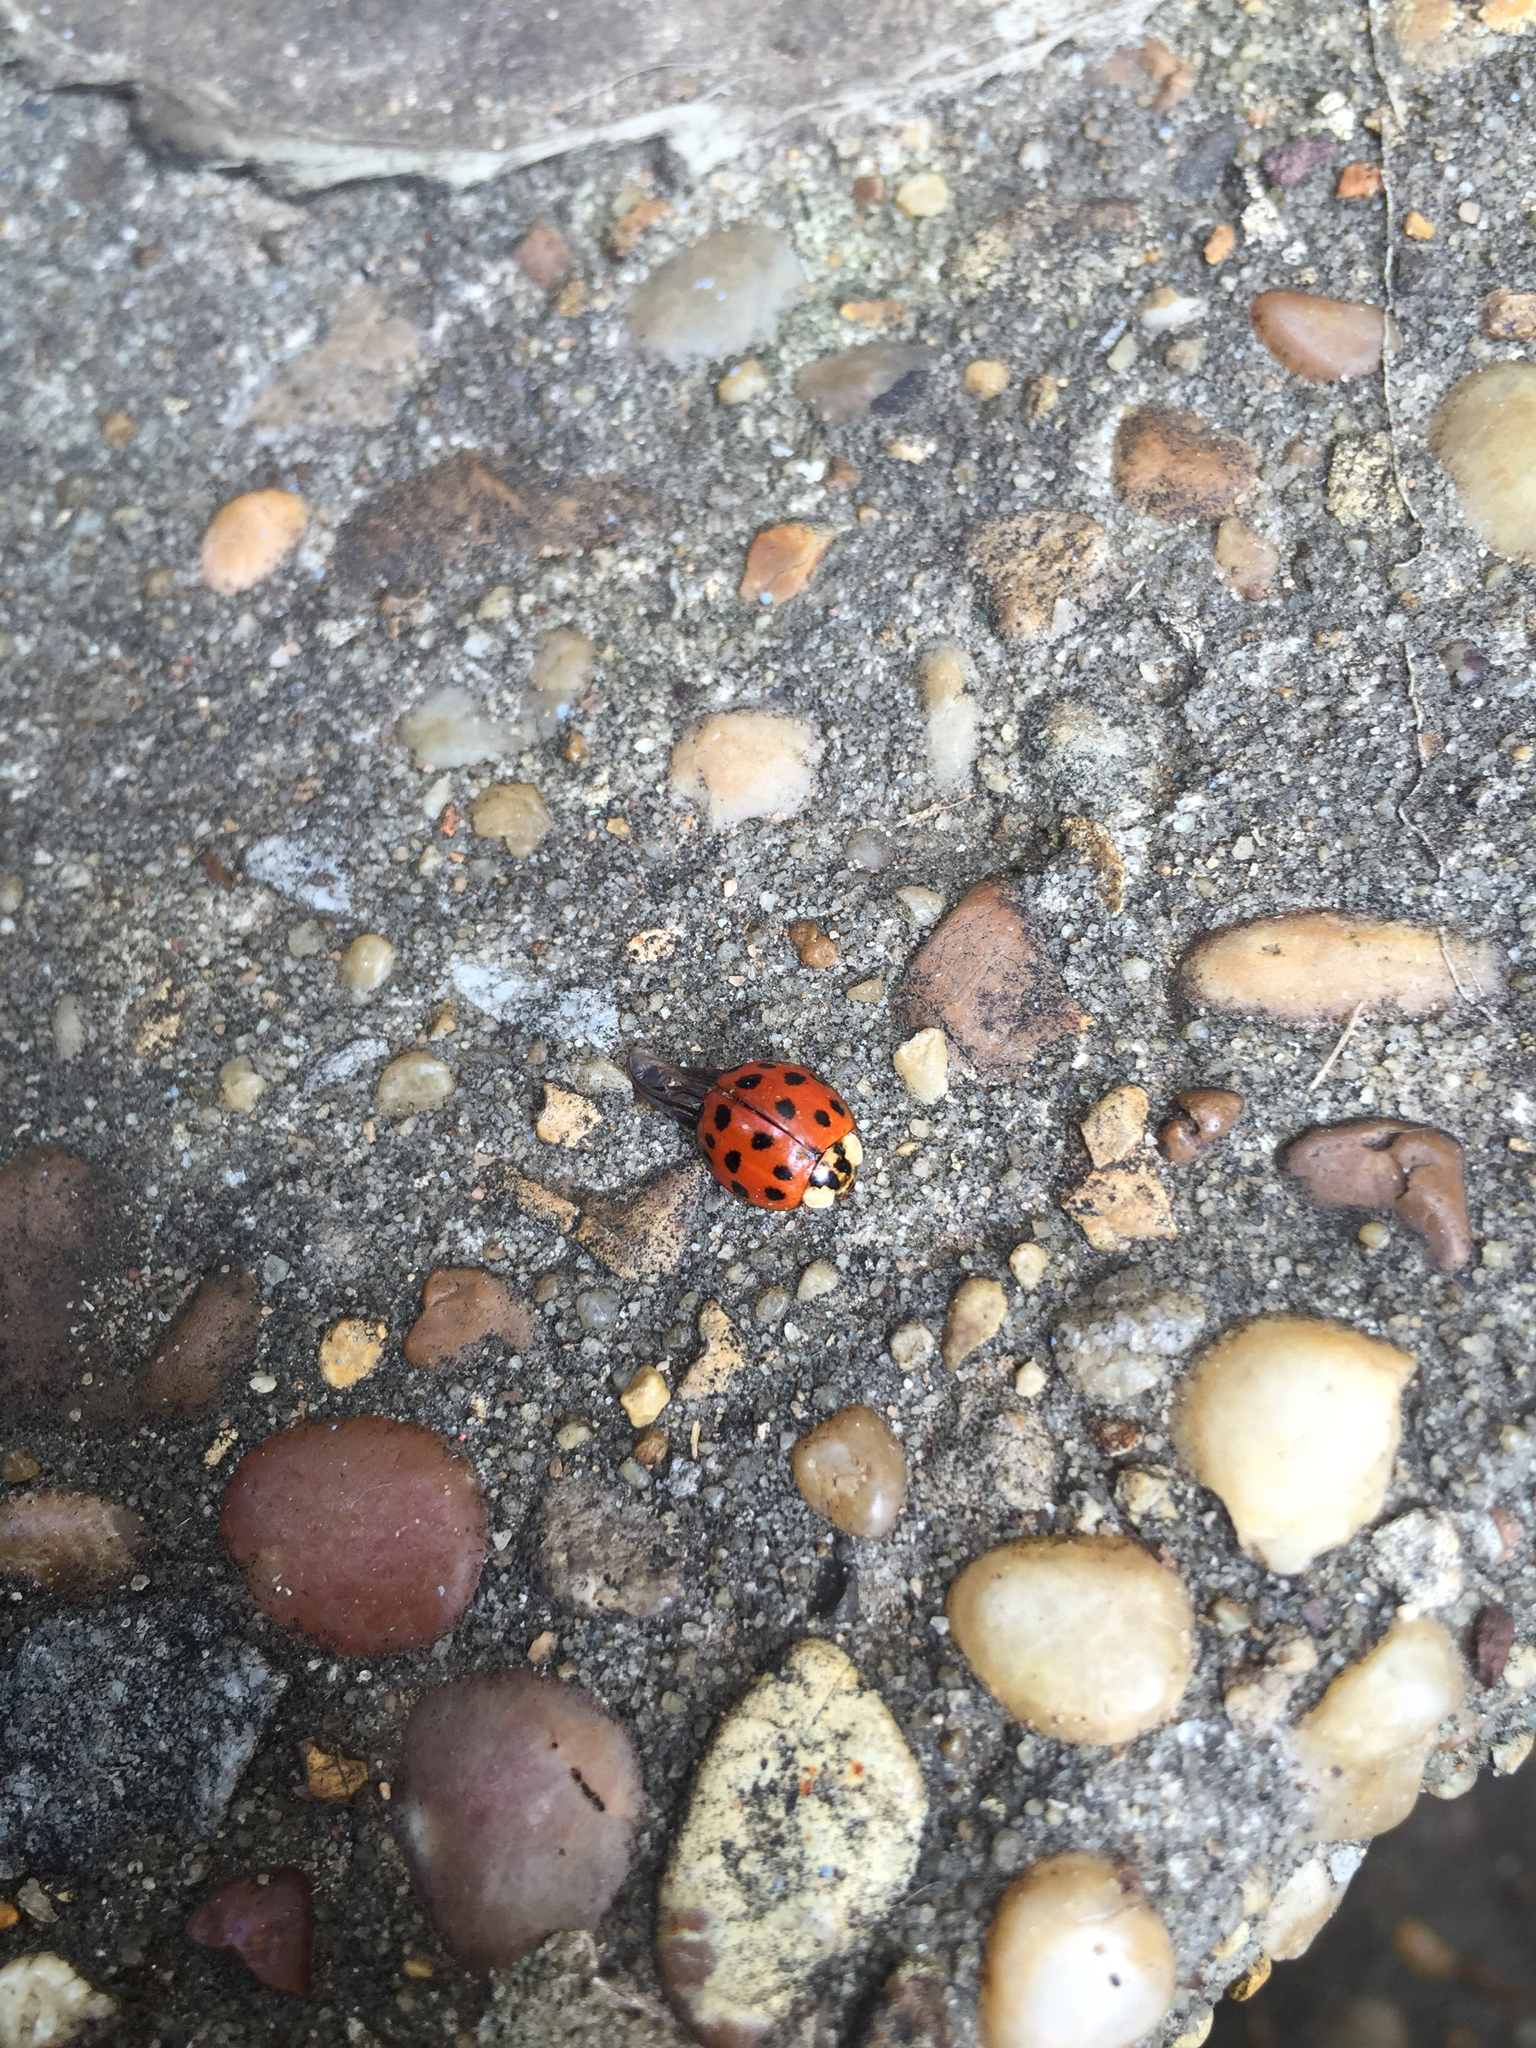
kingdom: Animalia
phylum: Arthropoda
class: Insecta
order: Coleoptera
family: Coccinellidae
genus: Harmonia
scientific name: Harmonia axyridis
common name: Harlequin ladybird
